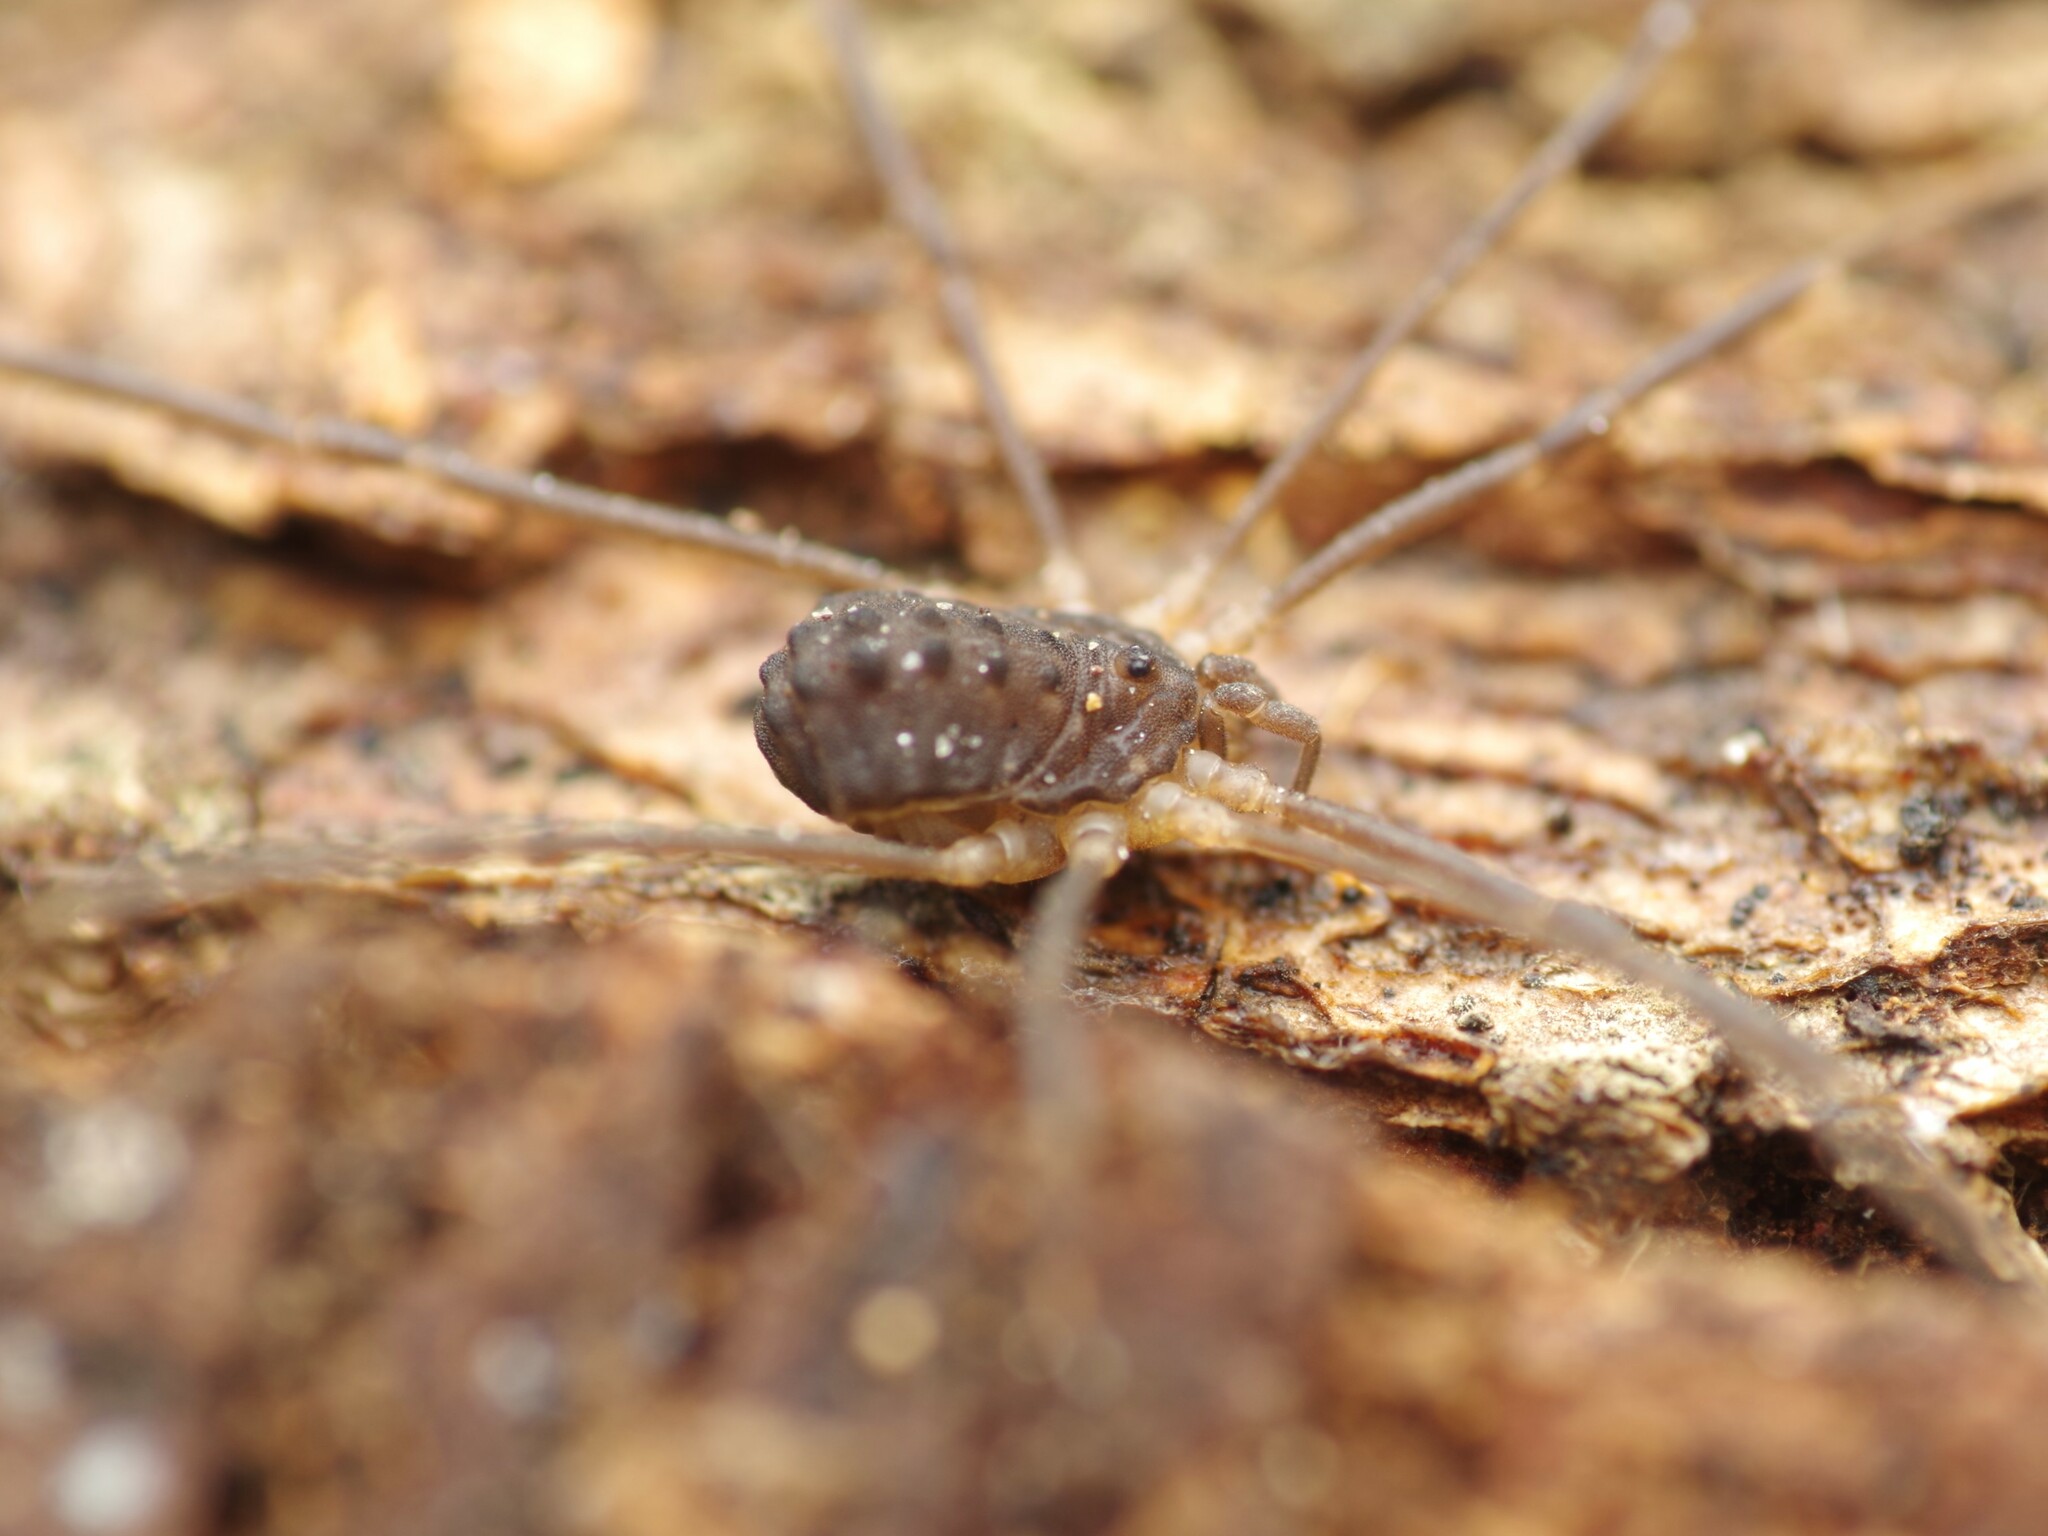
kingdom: Animalia
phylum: Arthropoda
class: Arachnida
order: Opiliones
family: Sclerosomatidae
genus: Astrobunus
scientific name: Astrobunus grallator
